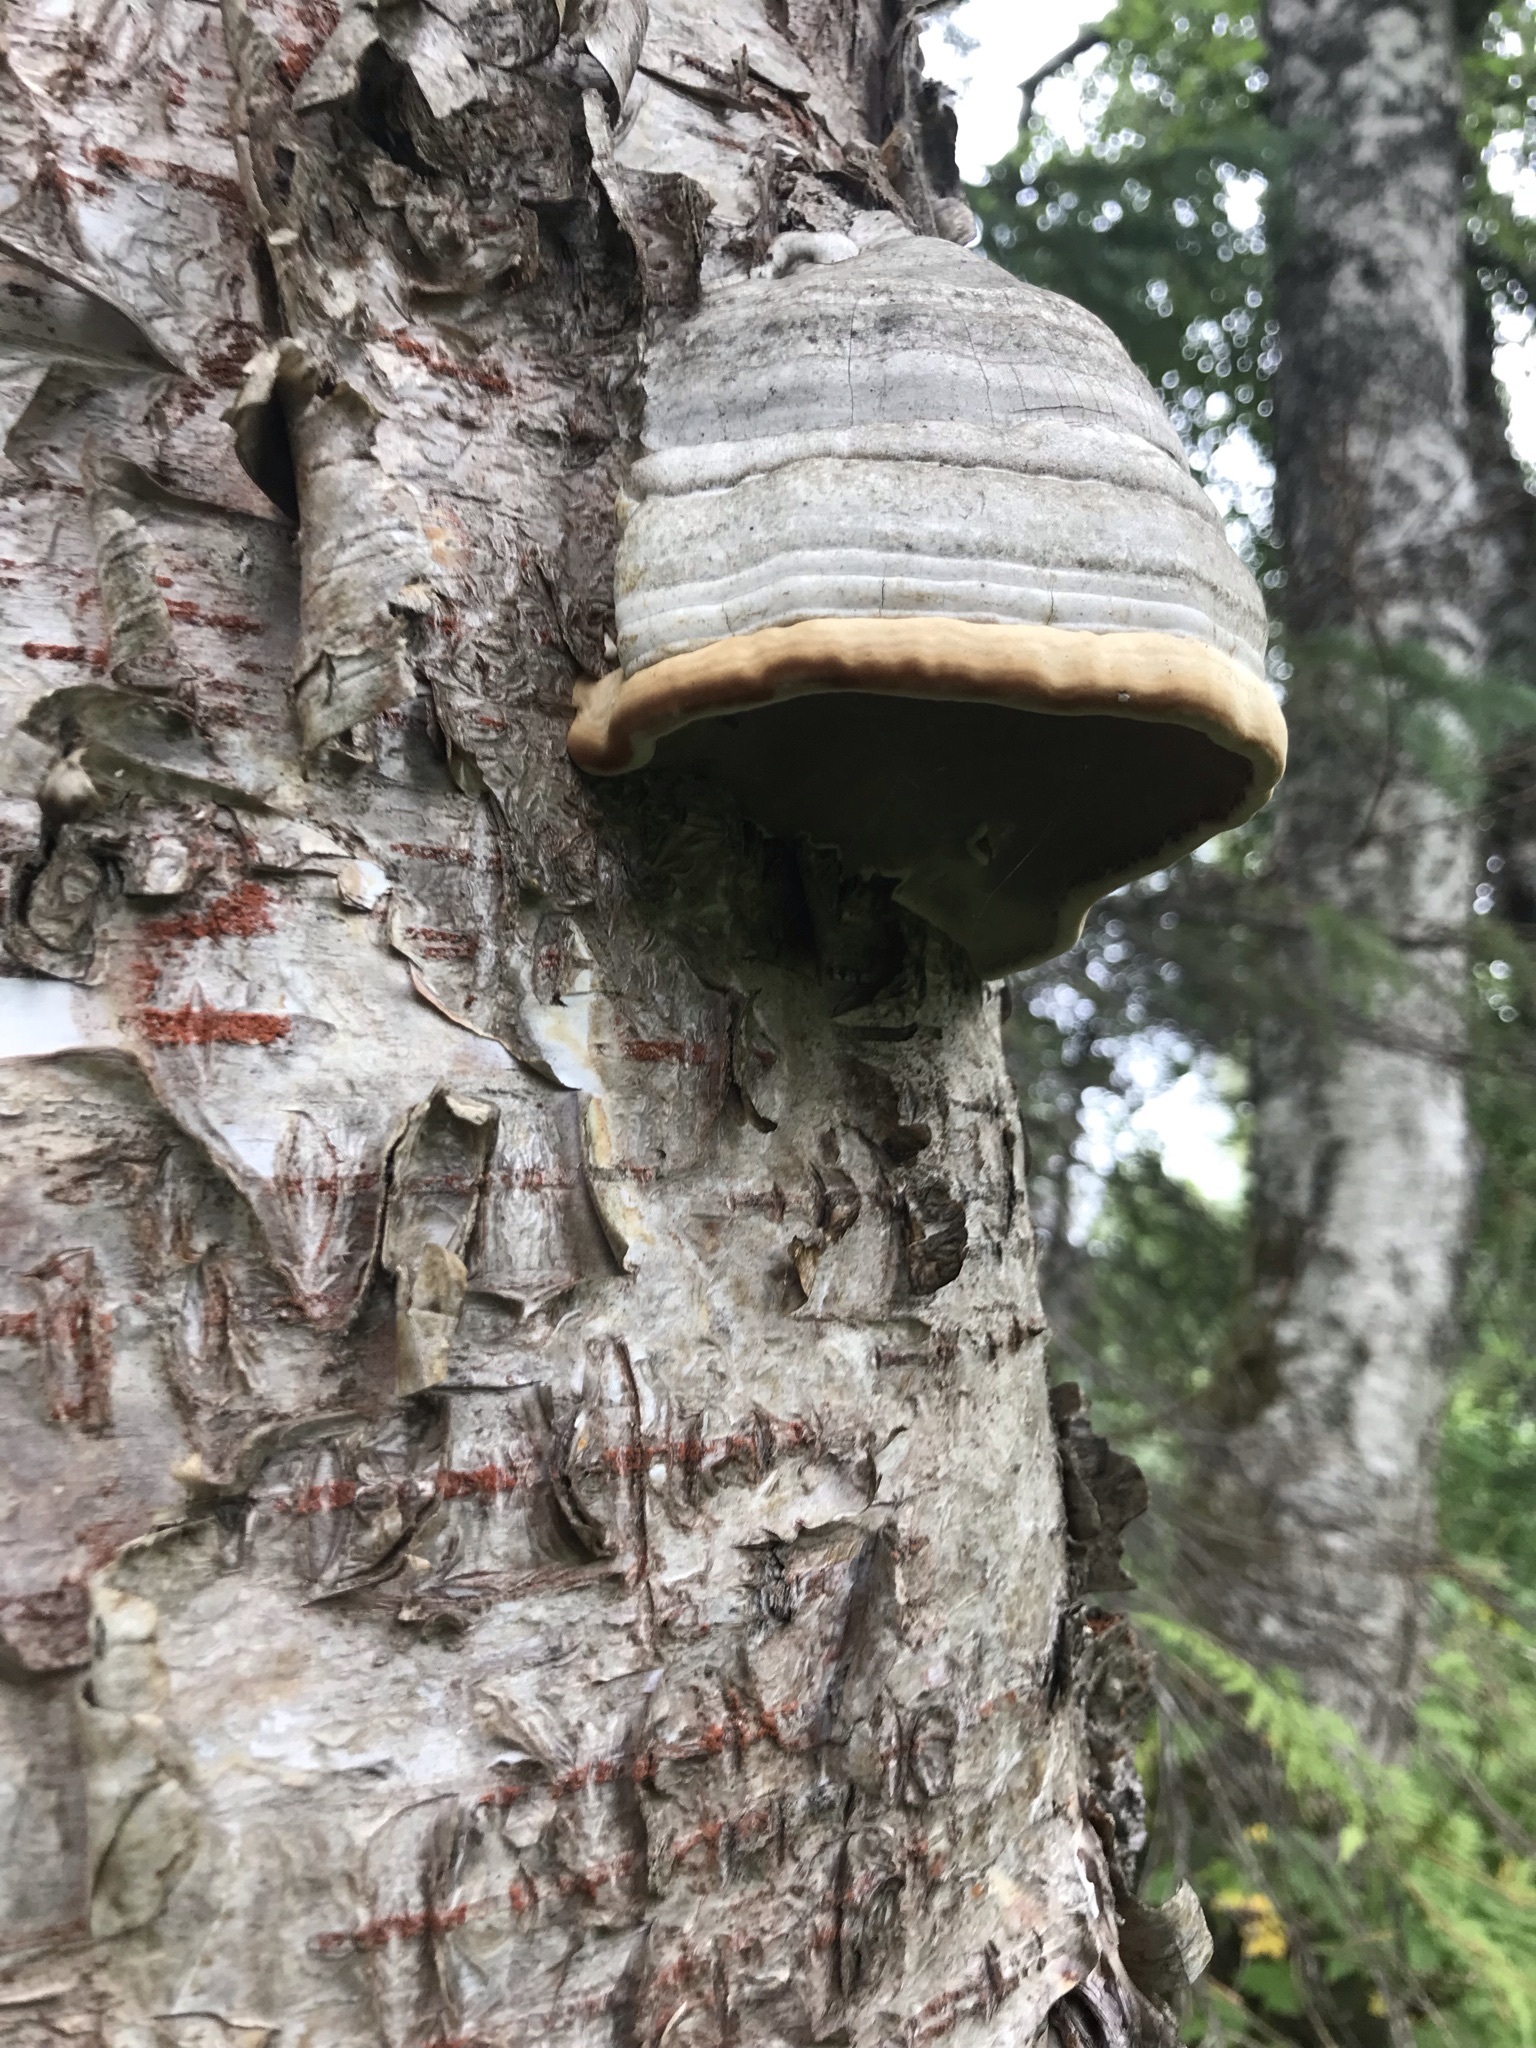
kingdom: Fungi
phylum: Basidiomycota
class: Agaricomycetes
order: Polyporales
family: Polyporaceae
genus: Fomes
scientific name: Fomes fomentarius
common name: Hoof fungus
